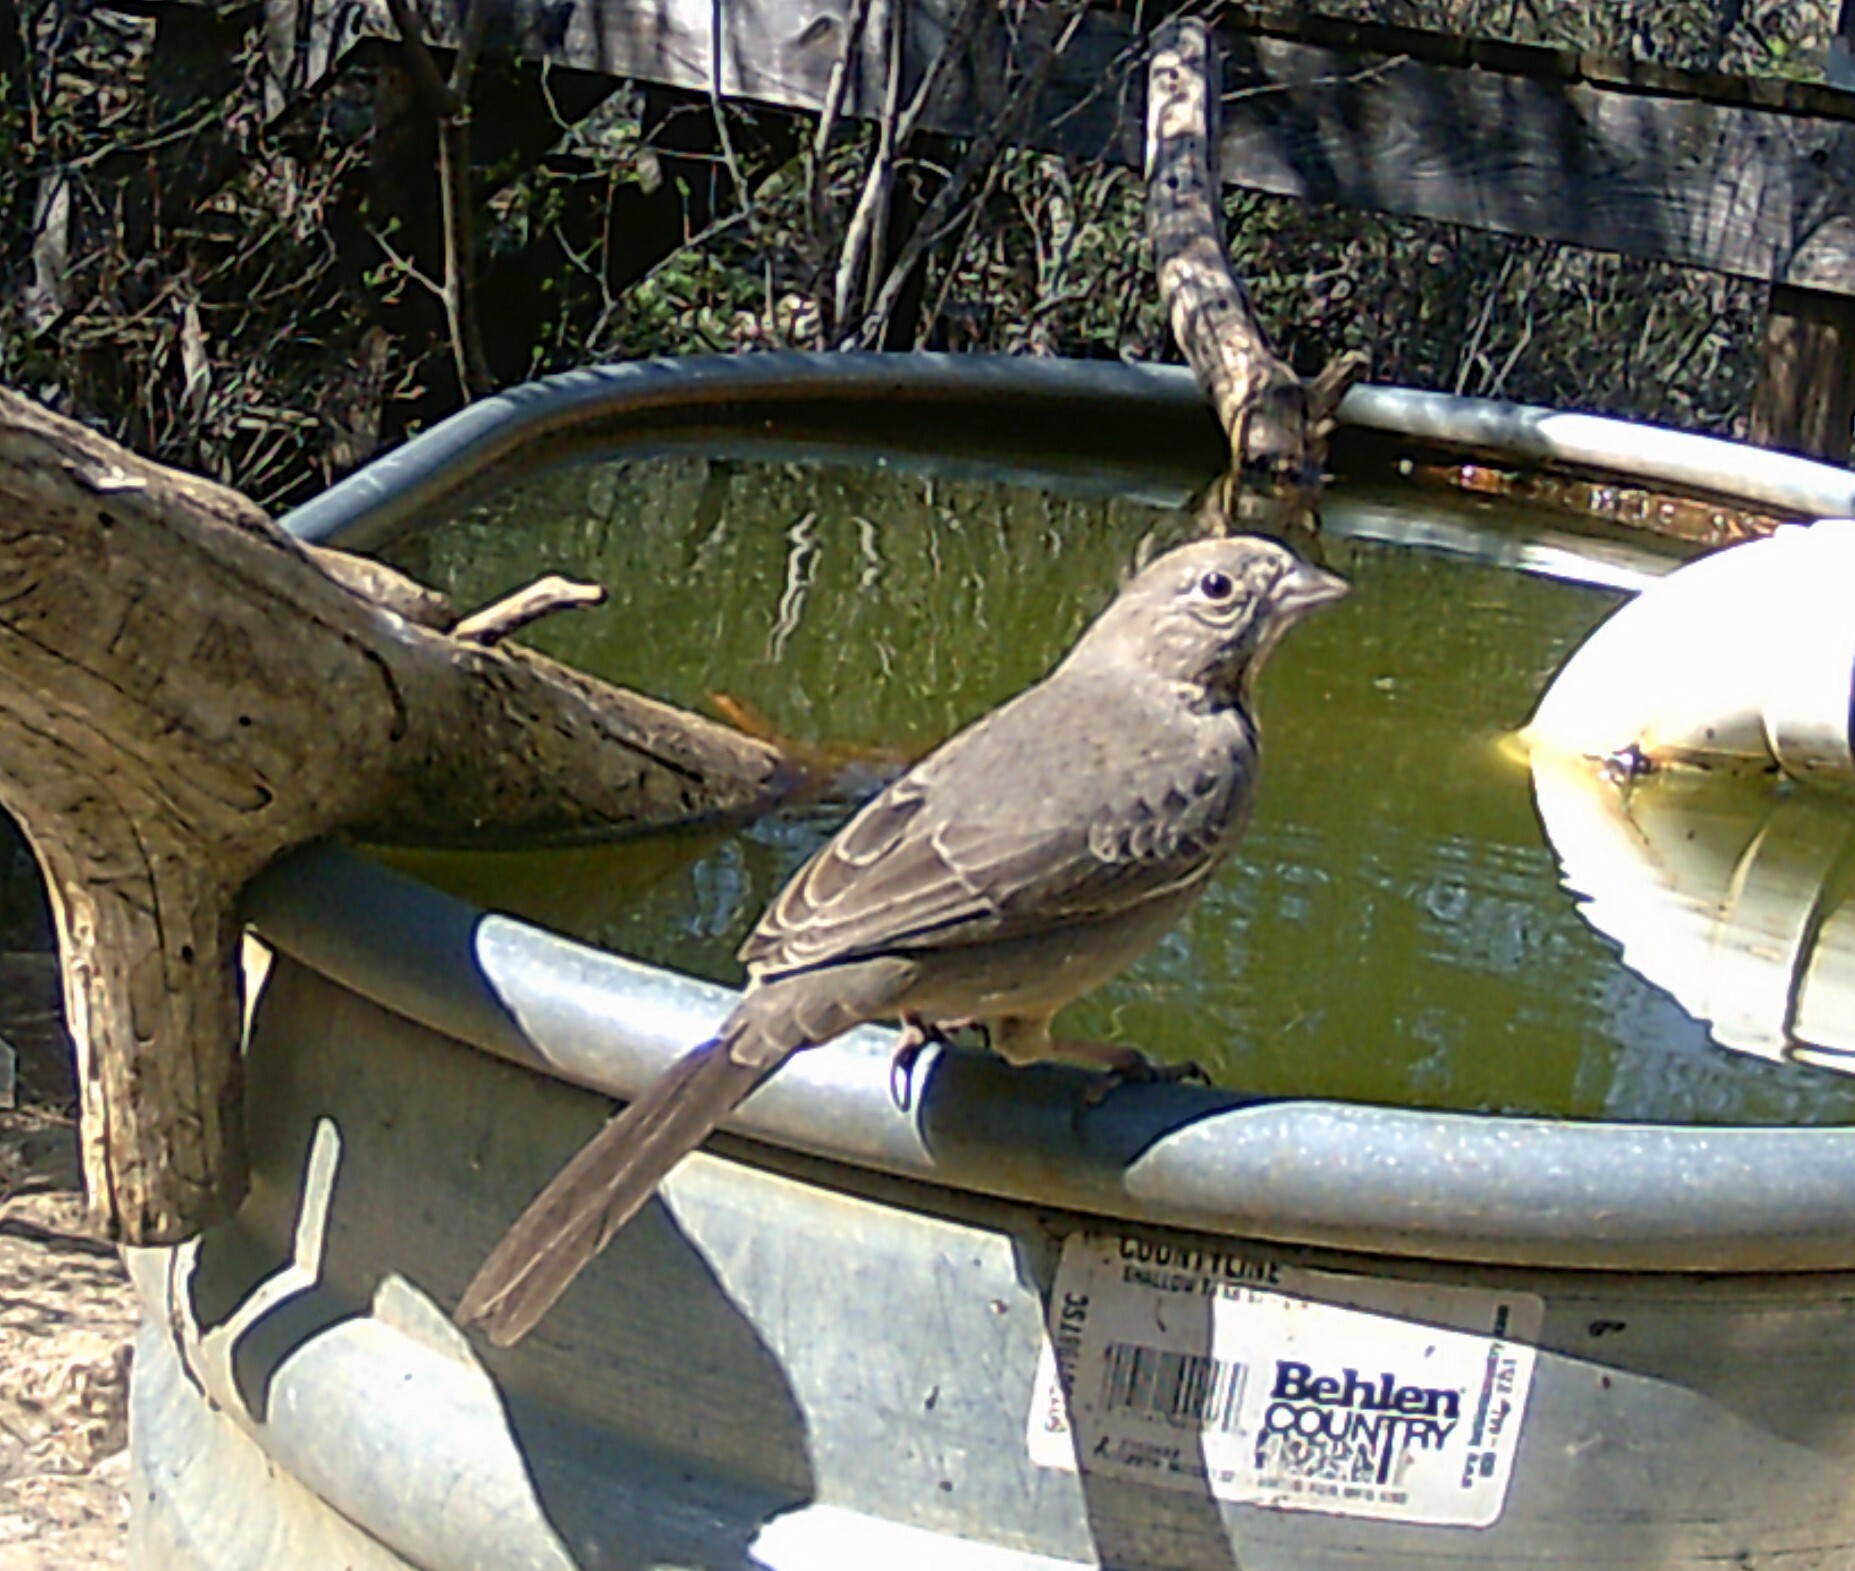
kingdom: Animalia
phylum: Chordata
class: Aves
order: Passeriformes
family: Passerellidae
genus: Melozone
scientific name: Melozone fusca
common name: Canyon towhee
